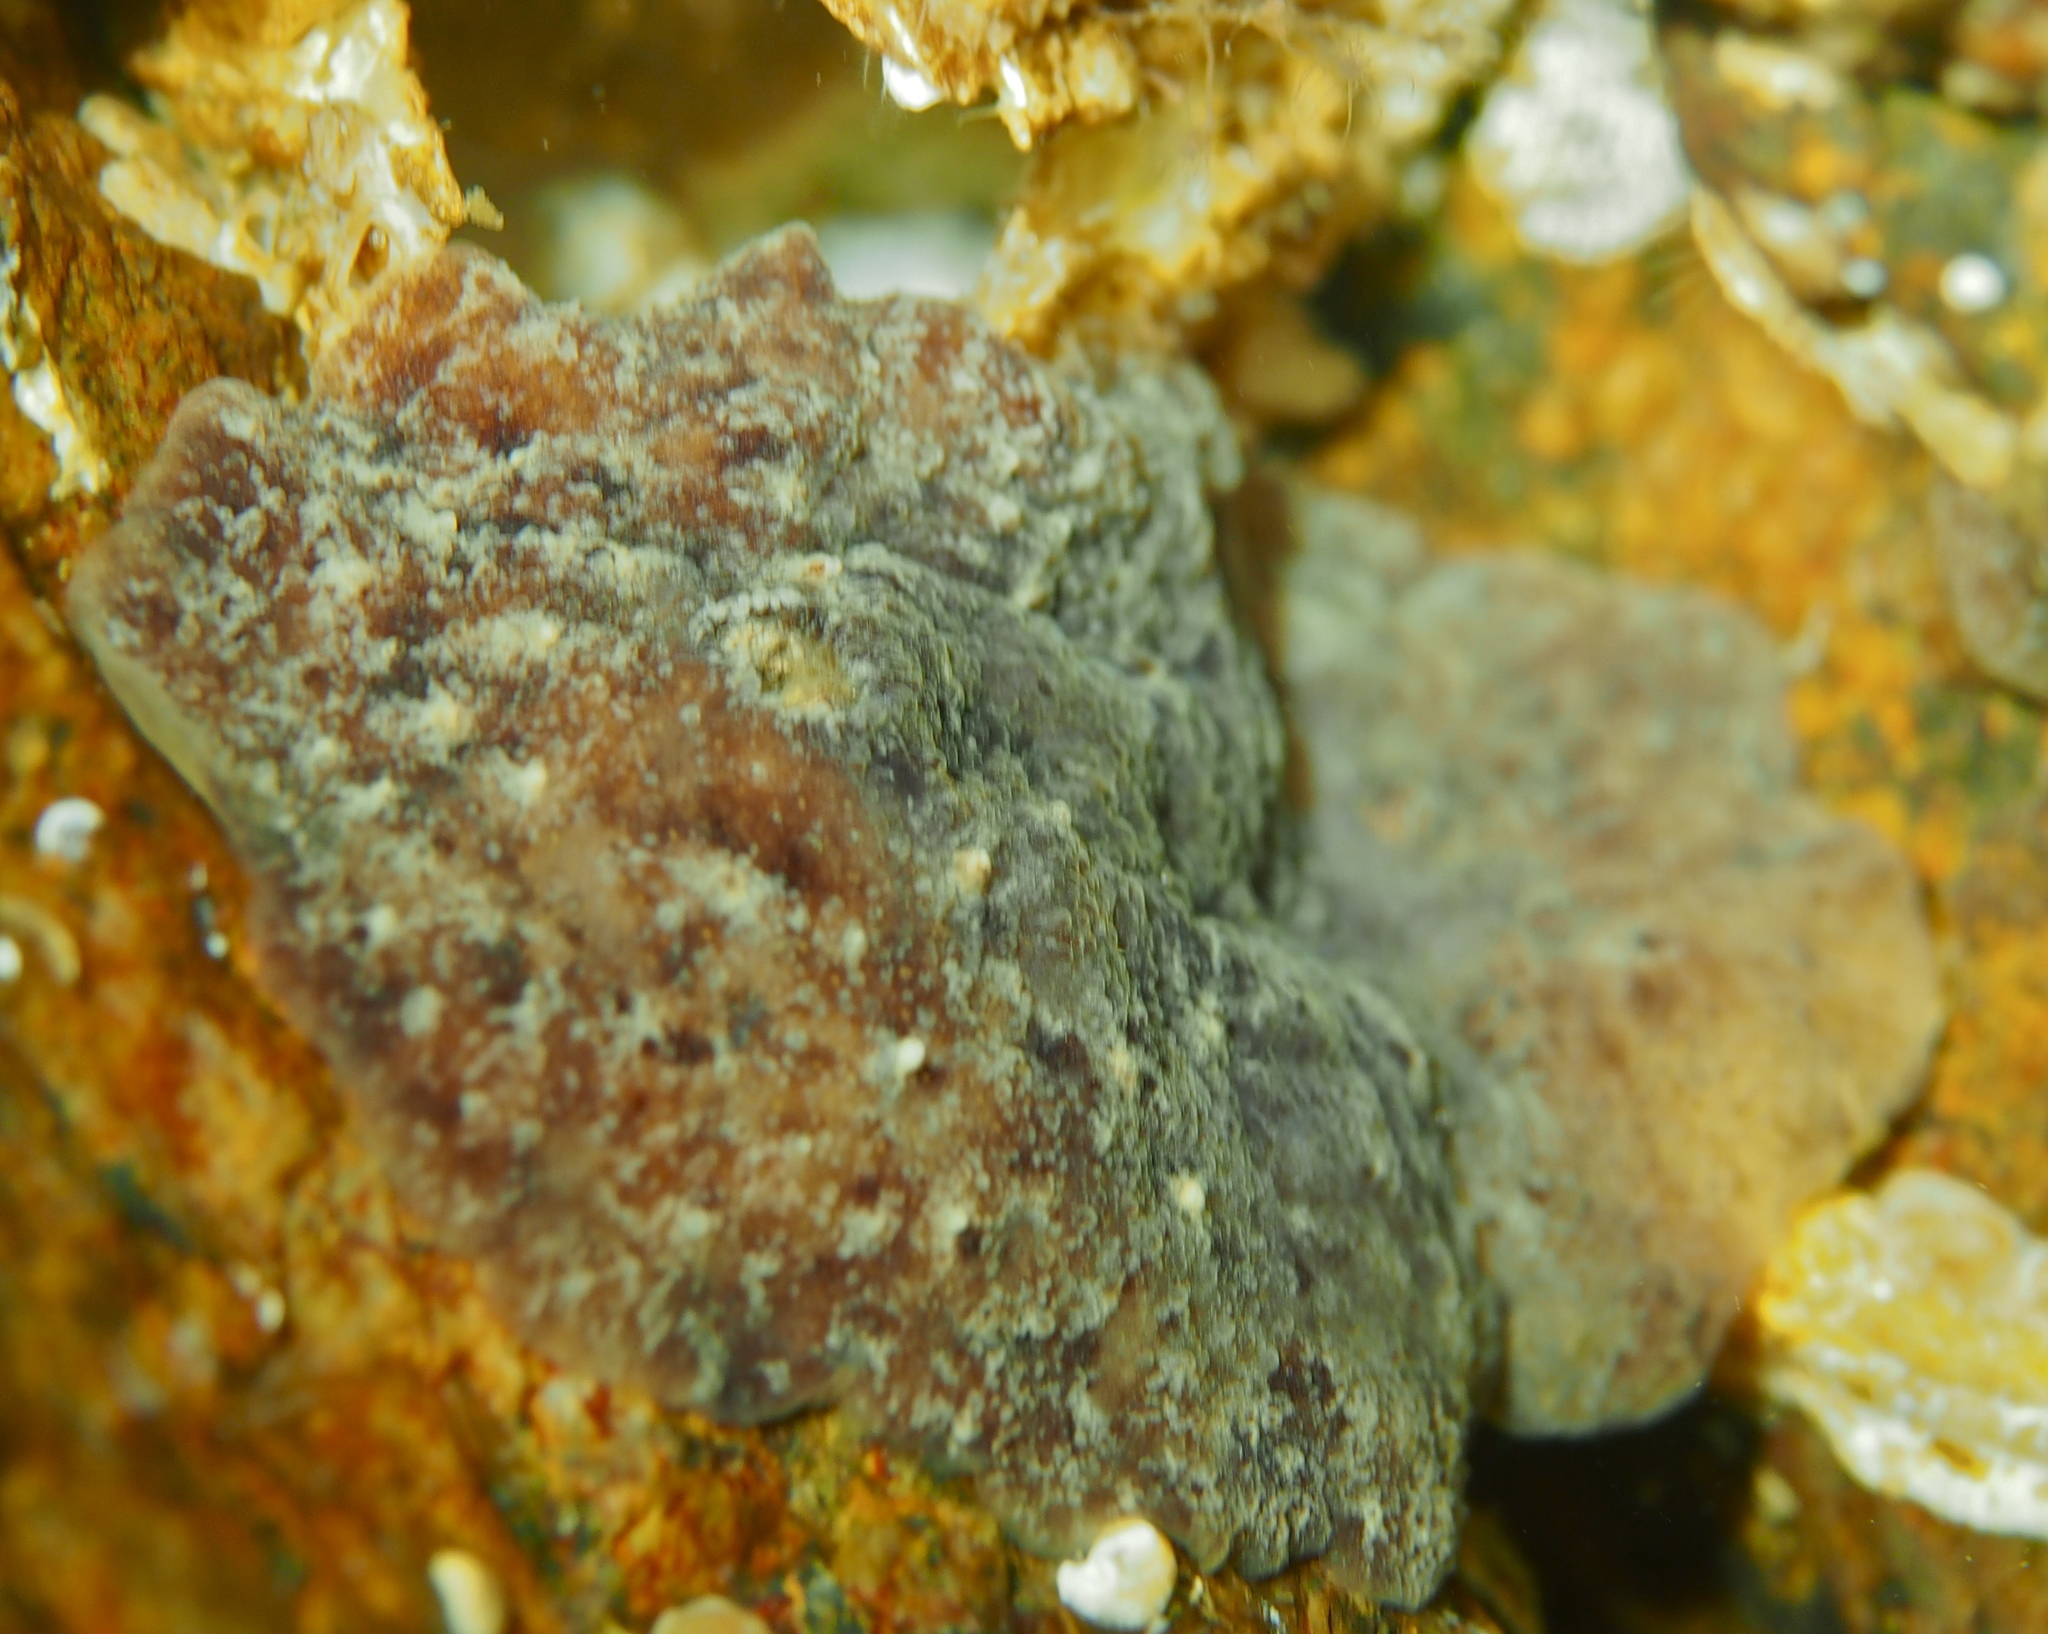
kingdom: Animalia
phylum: Mollusca
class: Gastropoda
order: Nudibranchia
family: Discodorididae
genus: Geitodoris
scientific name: Geitodoris planata
